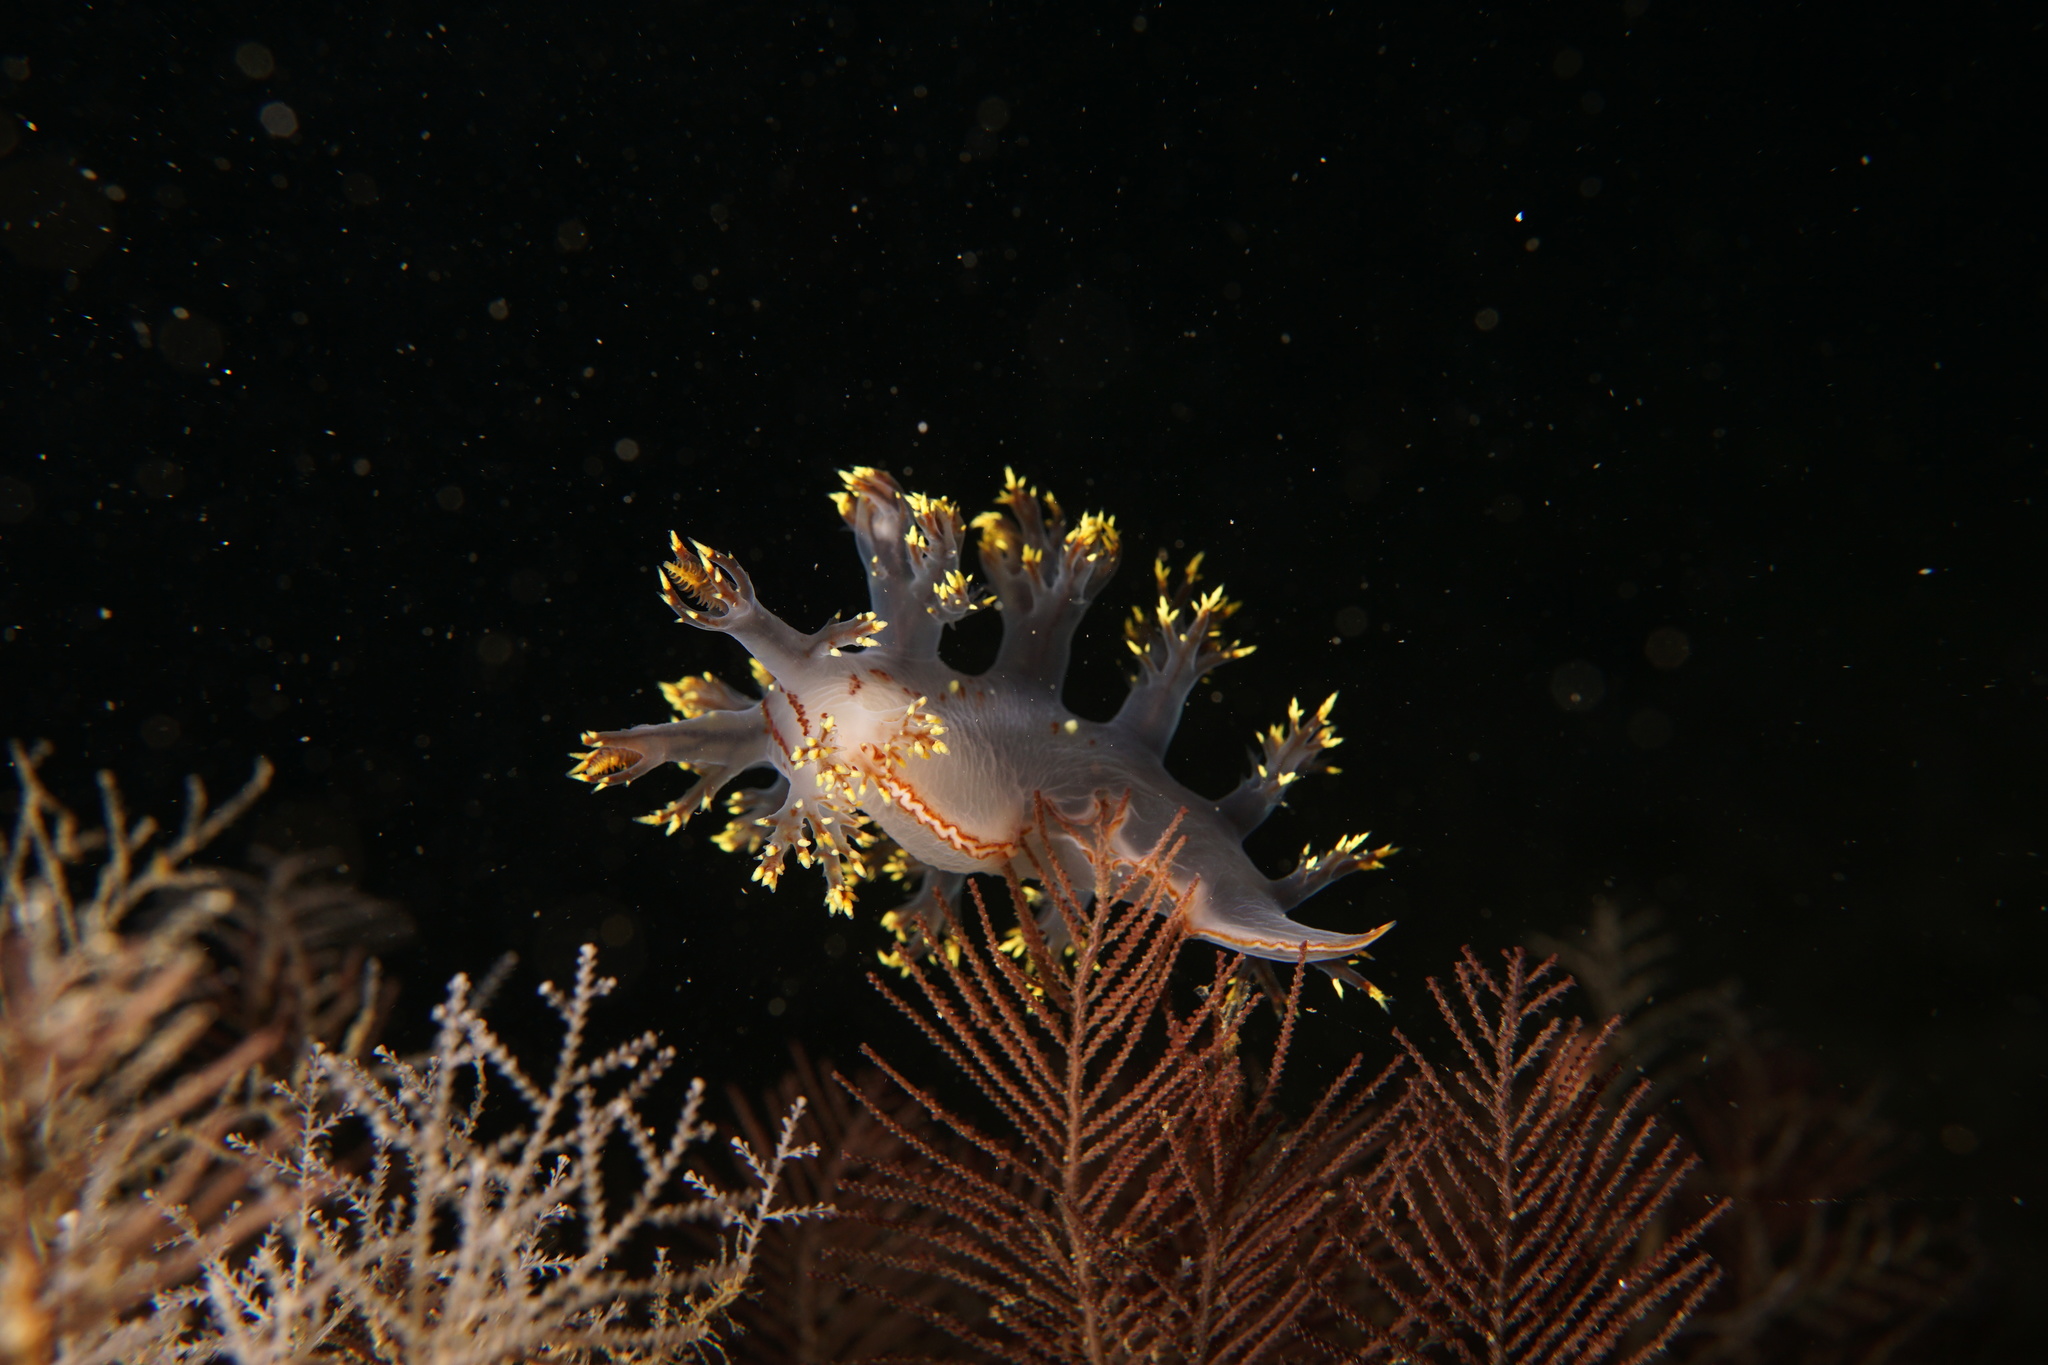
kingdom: Animalia
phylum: Mollusca
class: Gastropoda
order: Nudibranchia
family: Dendronotidae
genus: Dendronotus
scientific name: Dendronotus yrjargul
